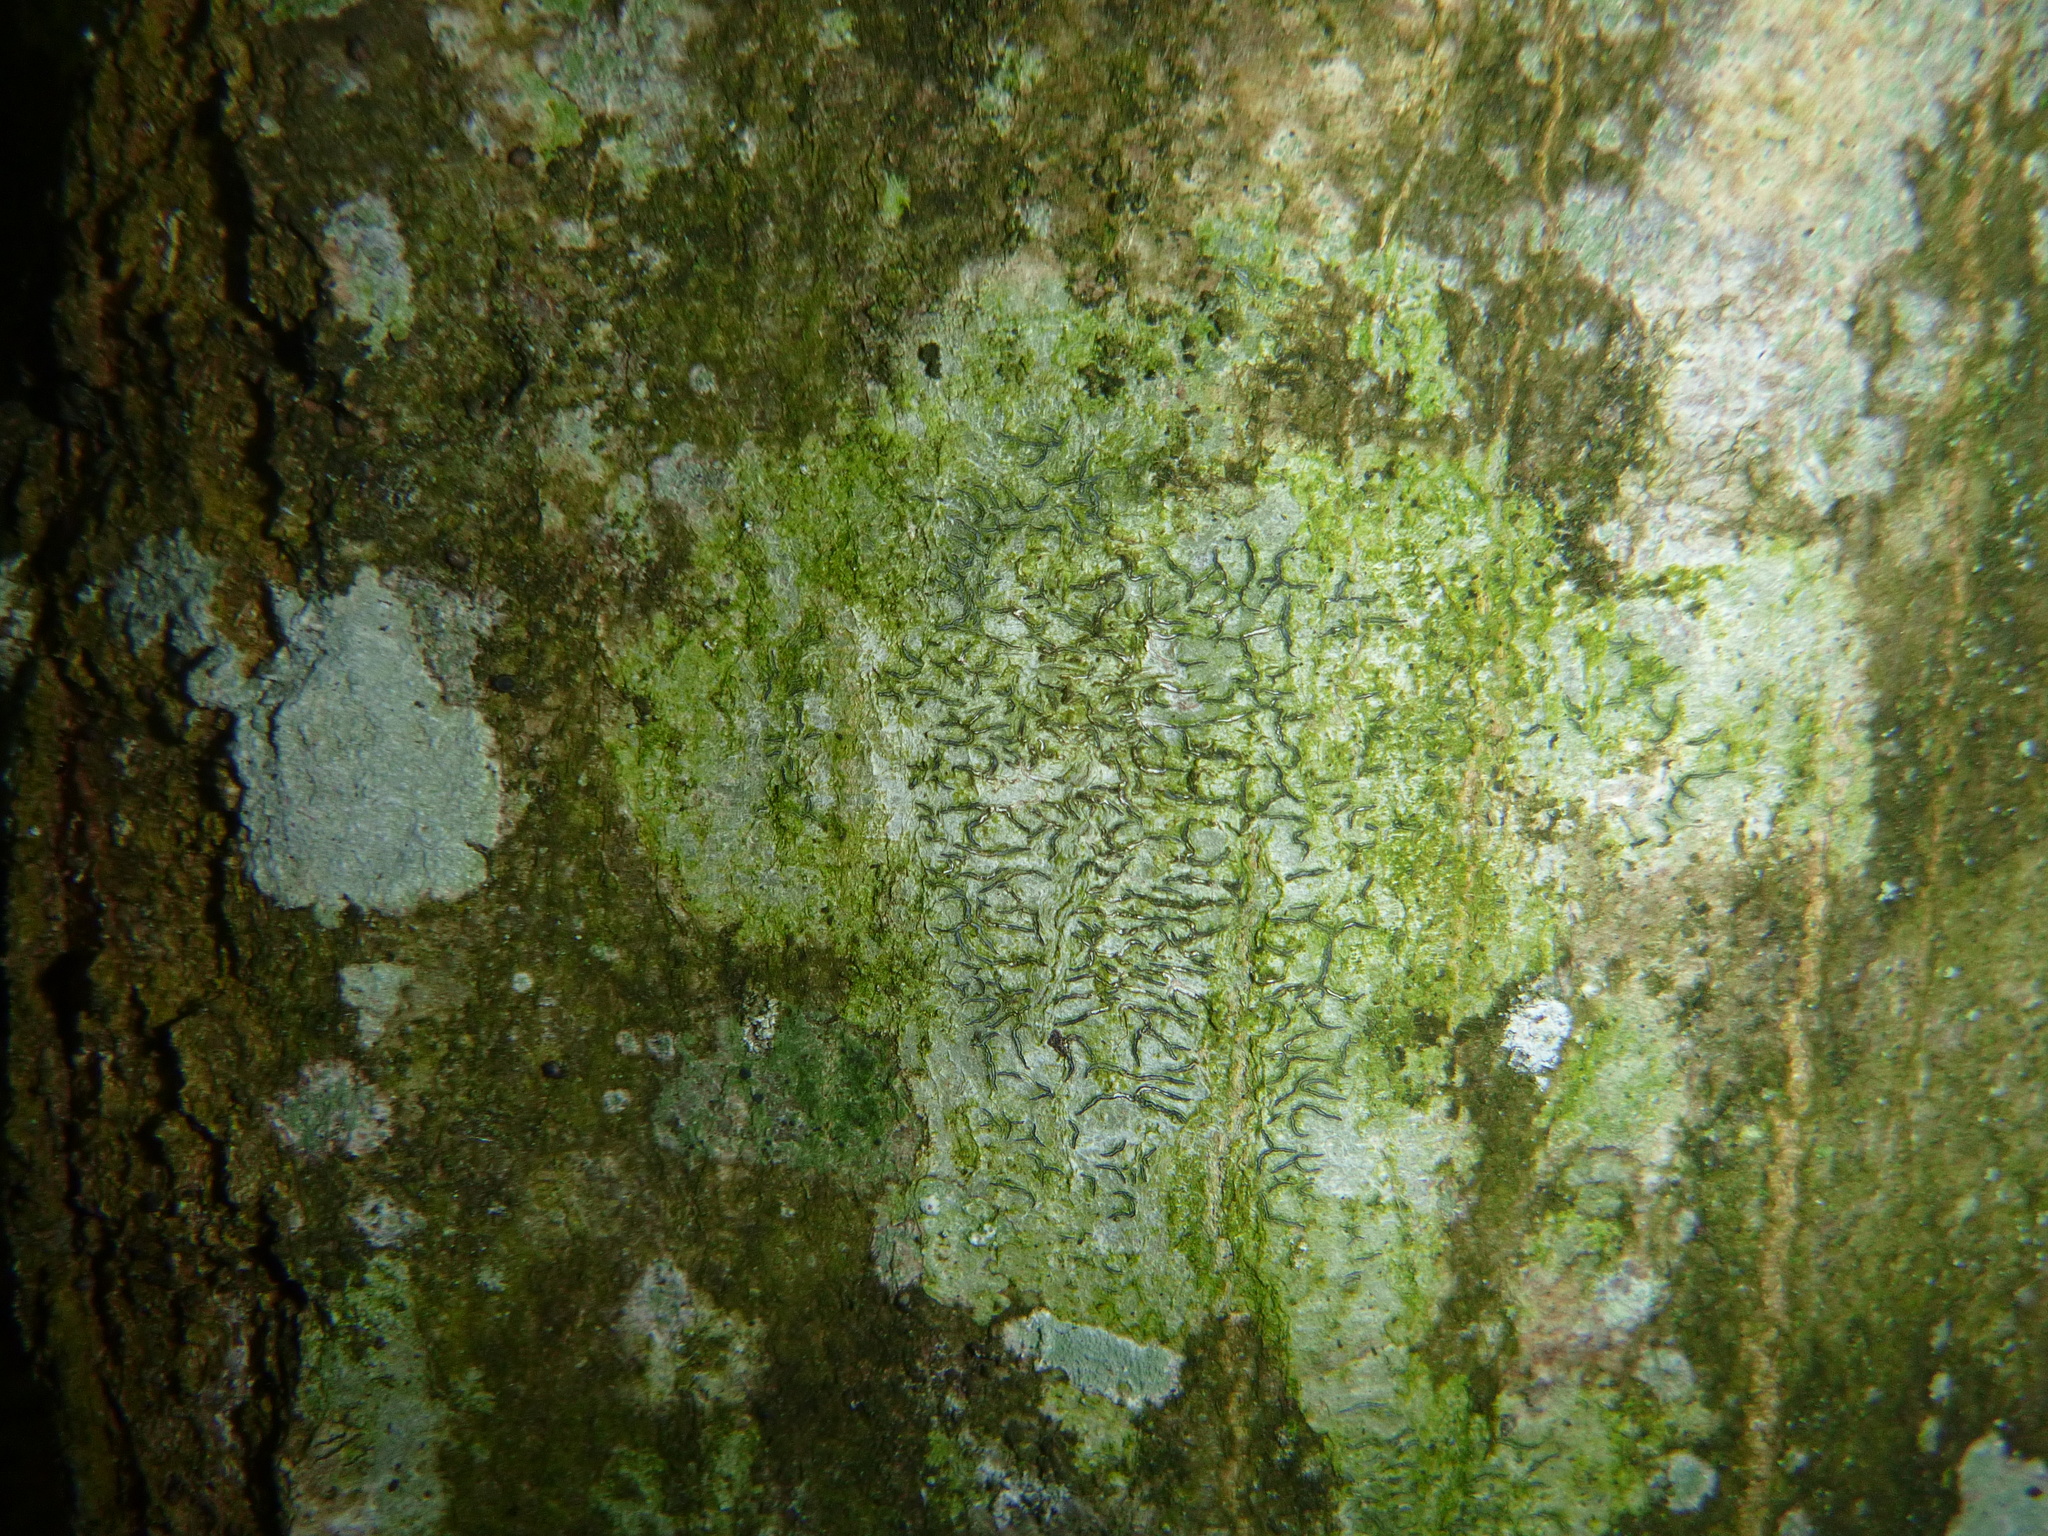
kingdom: Fungi
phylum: Ascomycota
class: Lecanoromycetes
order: Ostropales
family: Graphidaceae
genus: Graphis
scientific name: Graphis scripta
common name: Script lichen
